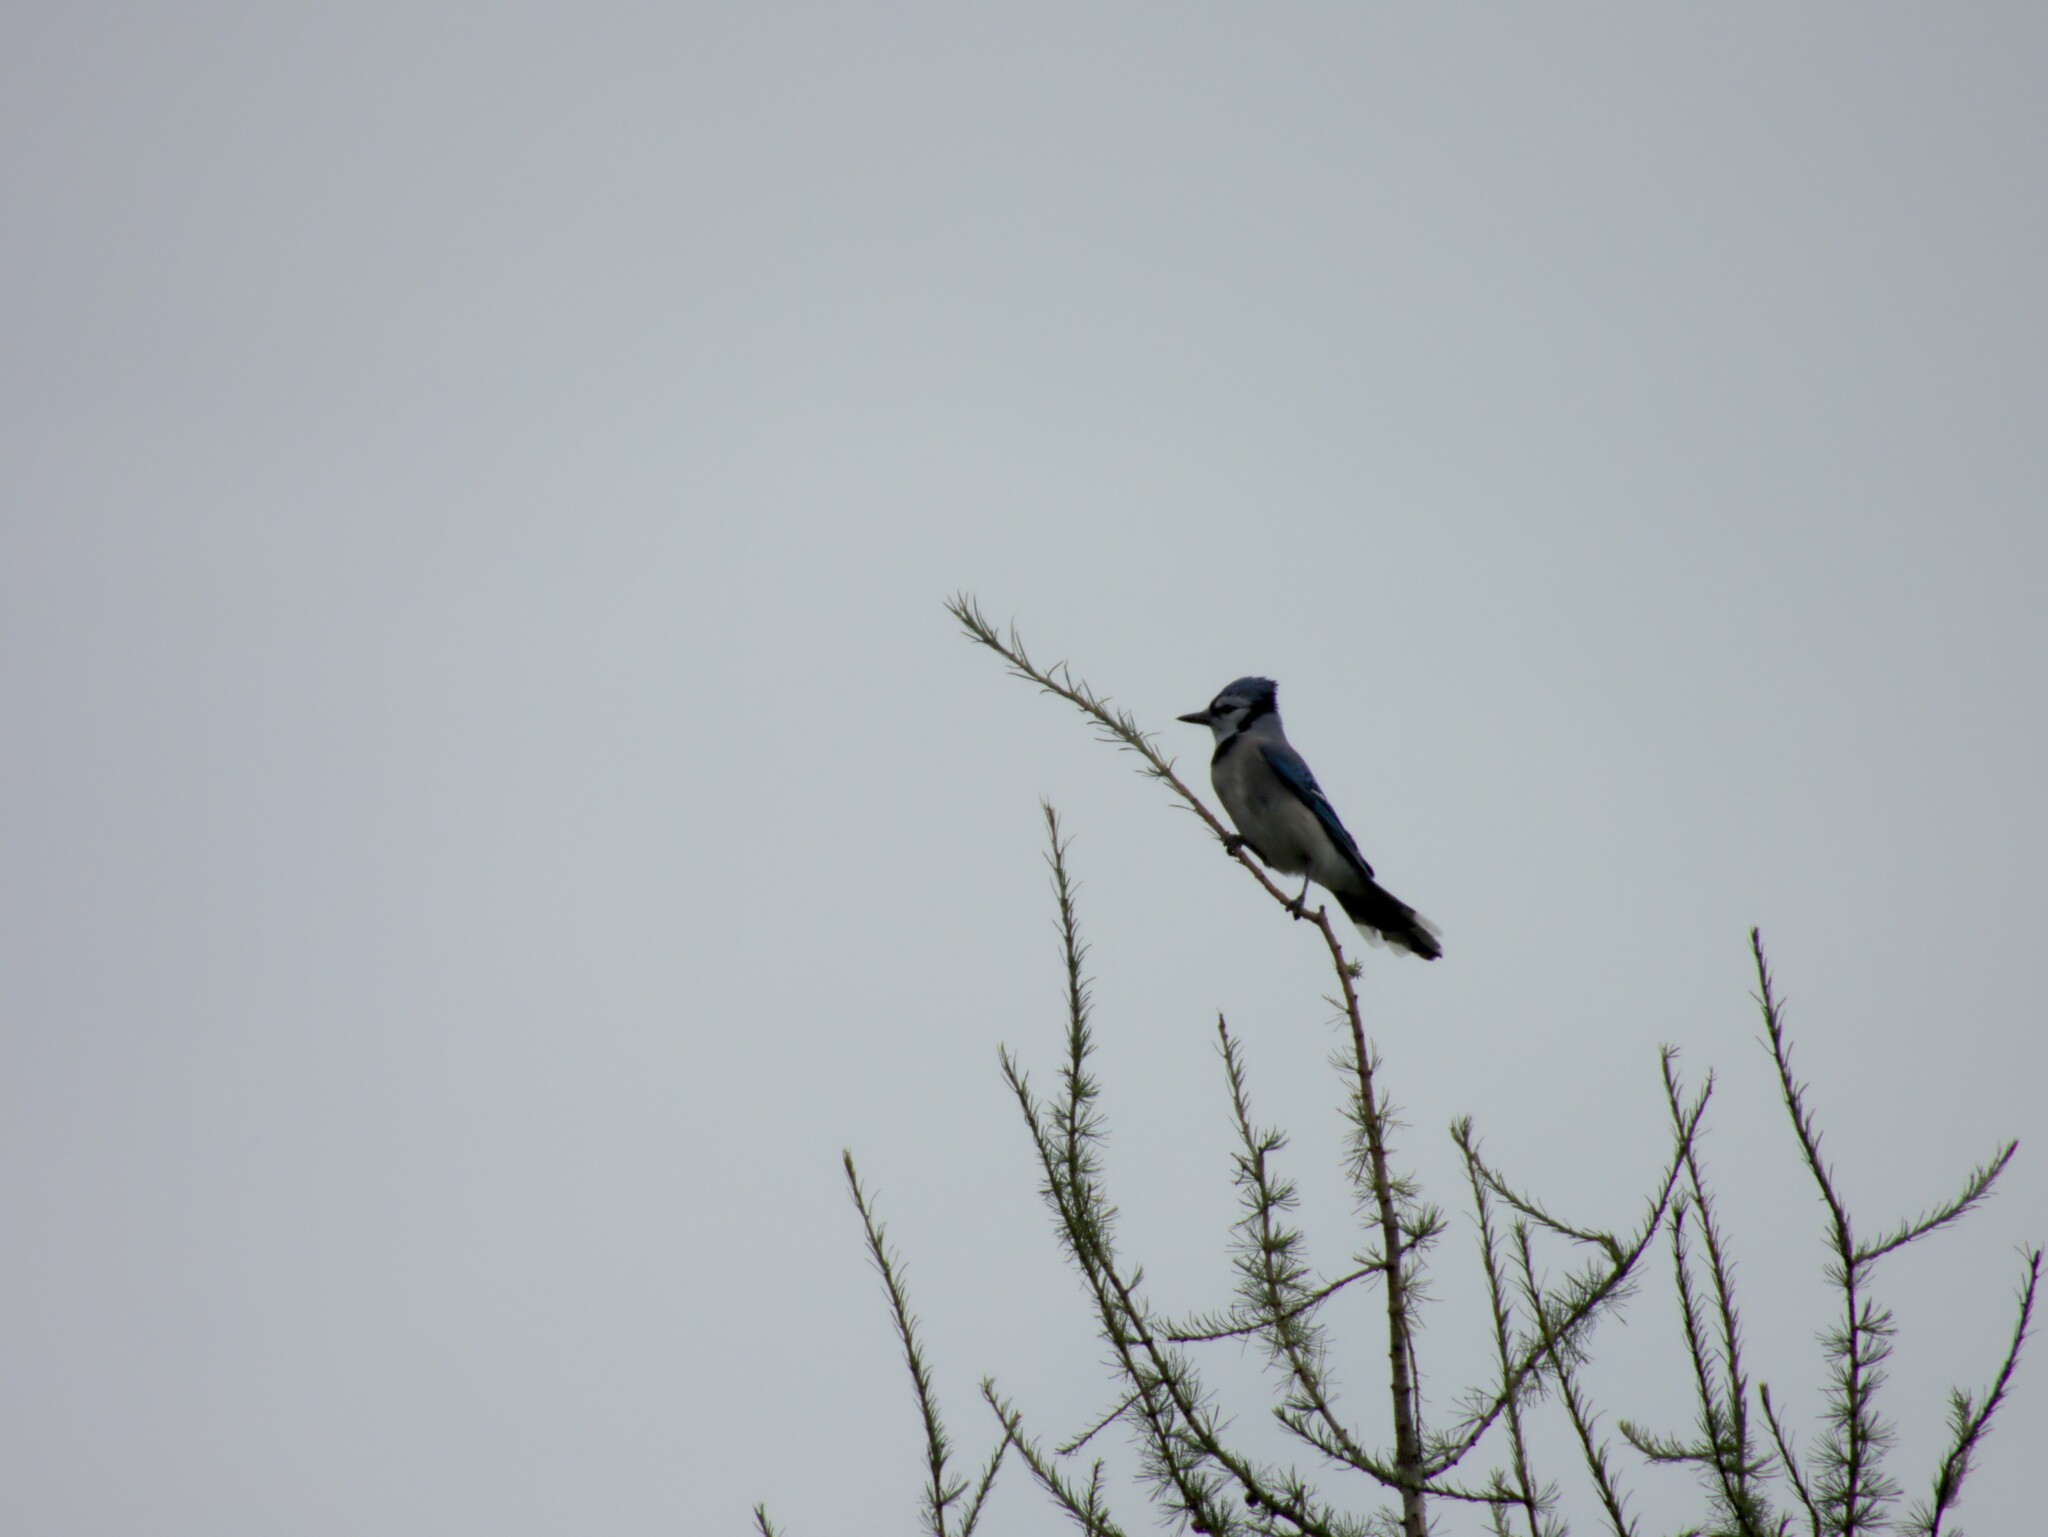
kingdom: Animalia
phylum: Chordata
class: Aves
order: Passeriformes
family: Corvidae
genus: Cyanocitta
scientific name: Cyanocitta cristata
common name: Blue jay
